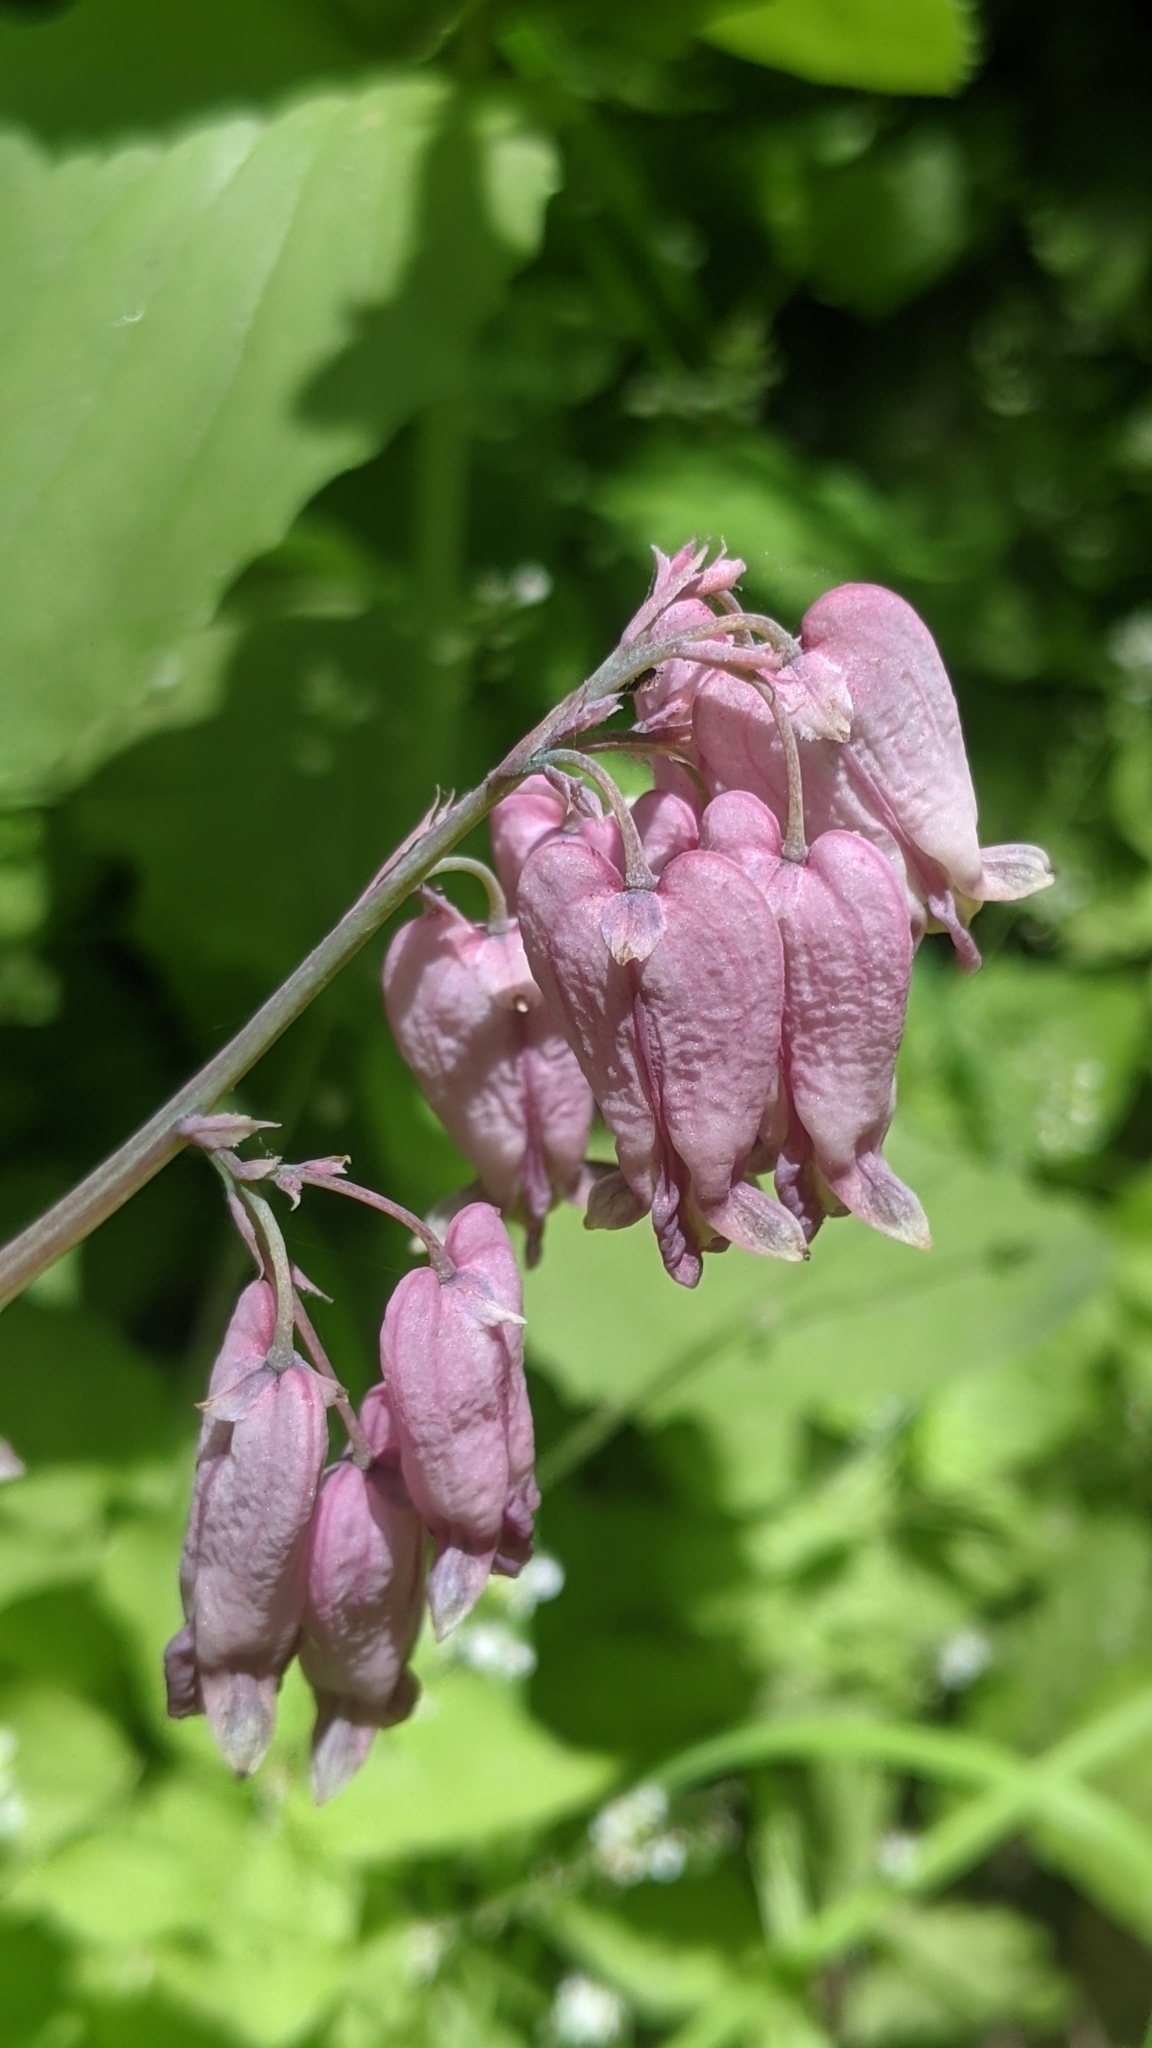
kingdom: Plantae
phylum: Tracheophyta
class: Magnoliopsida
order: Ranunculales
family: Papaveraceae
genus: Dicentra
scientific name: Dicentra formosa
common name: Bleeding-heart
